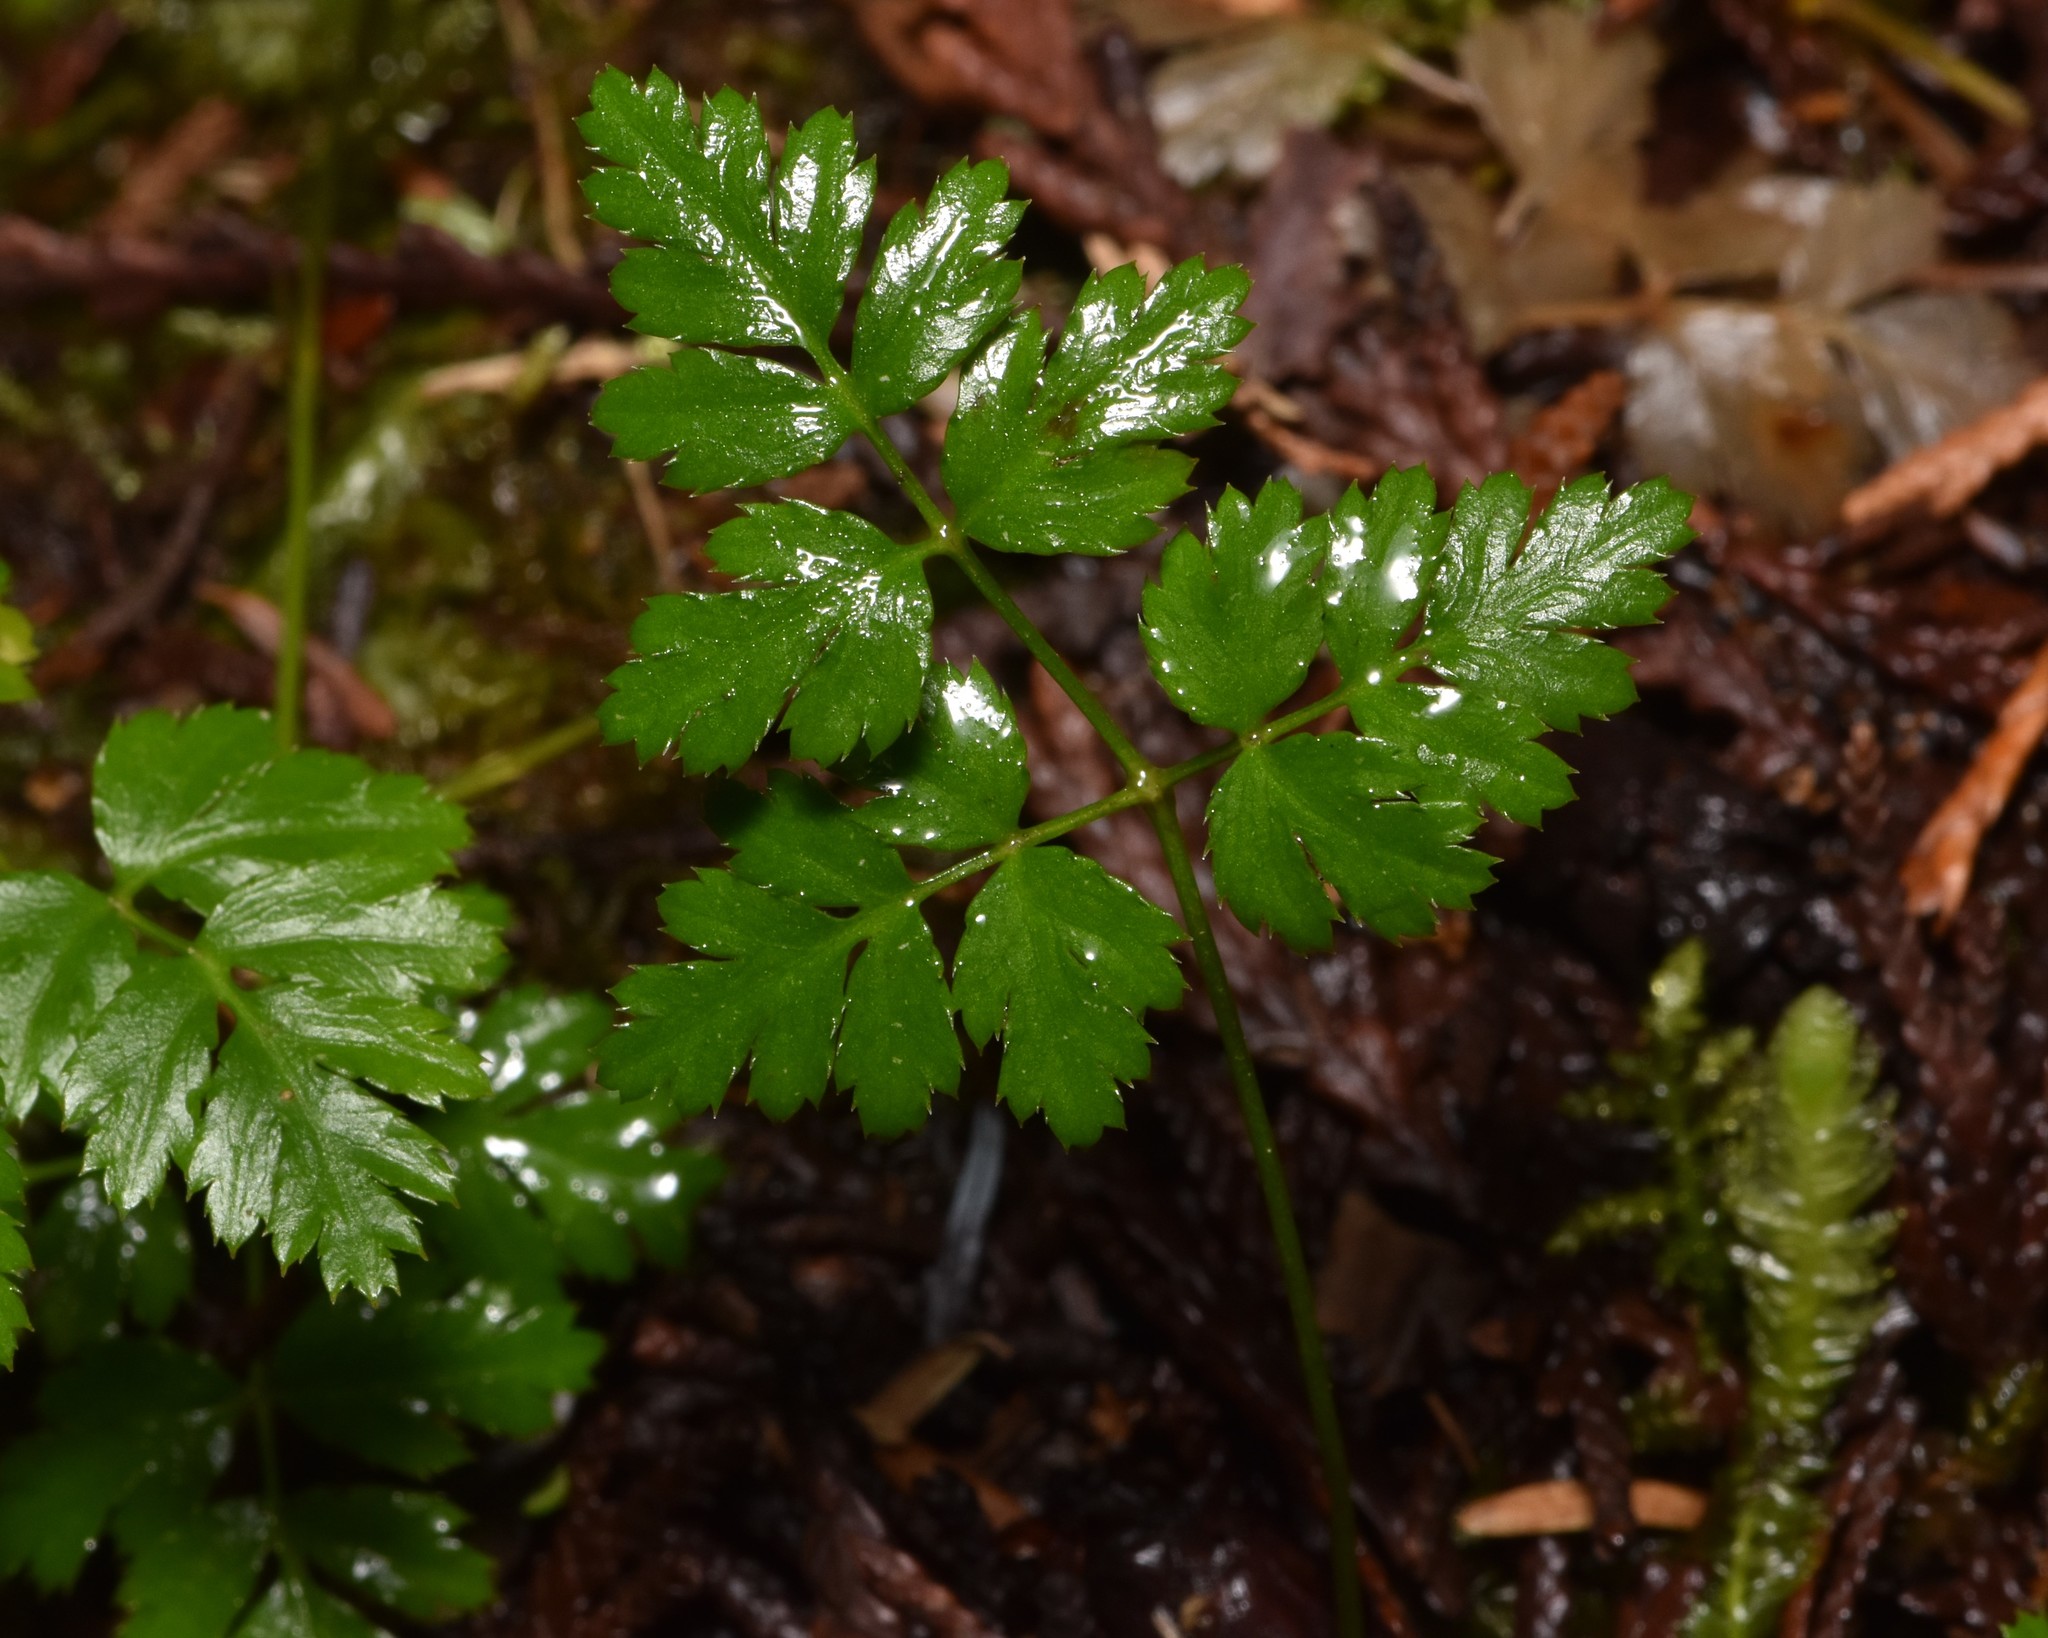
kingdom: Plantae
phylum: Tracheophyta
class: Magnoliopsida
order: Ranunculales
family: Ranunculaceae
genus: Coptis
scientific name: Coptis aspleniifolia
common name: Fern-leaved goldthread
